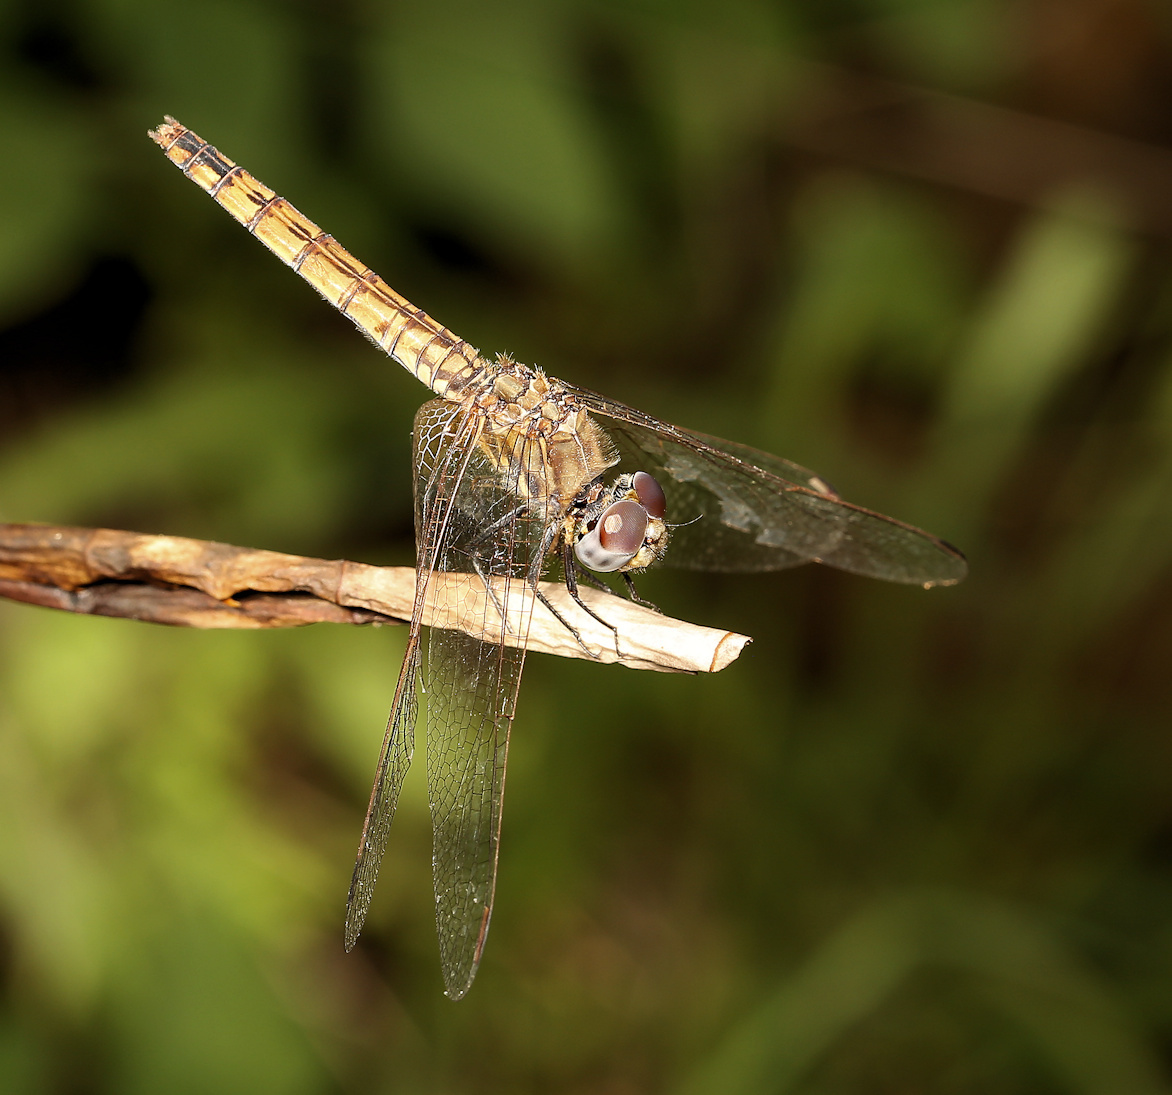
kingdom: Animalia
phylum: Arthropoda
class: Insecta
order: Odonata
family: Libellulidae
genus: Trithemis
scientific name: Trithemis annulata
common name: Violet dropwing
